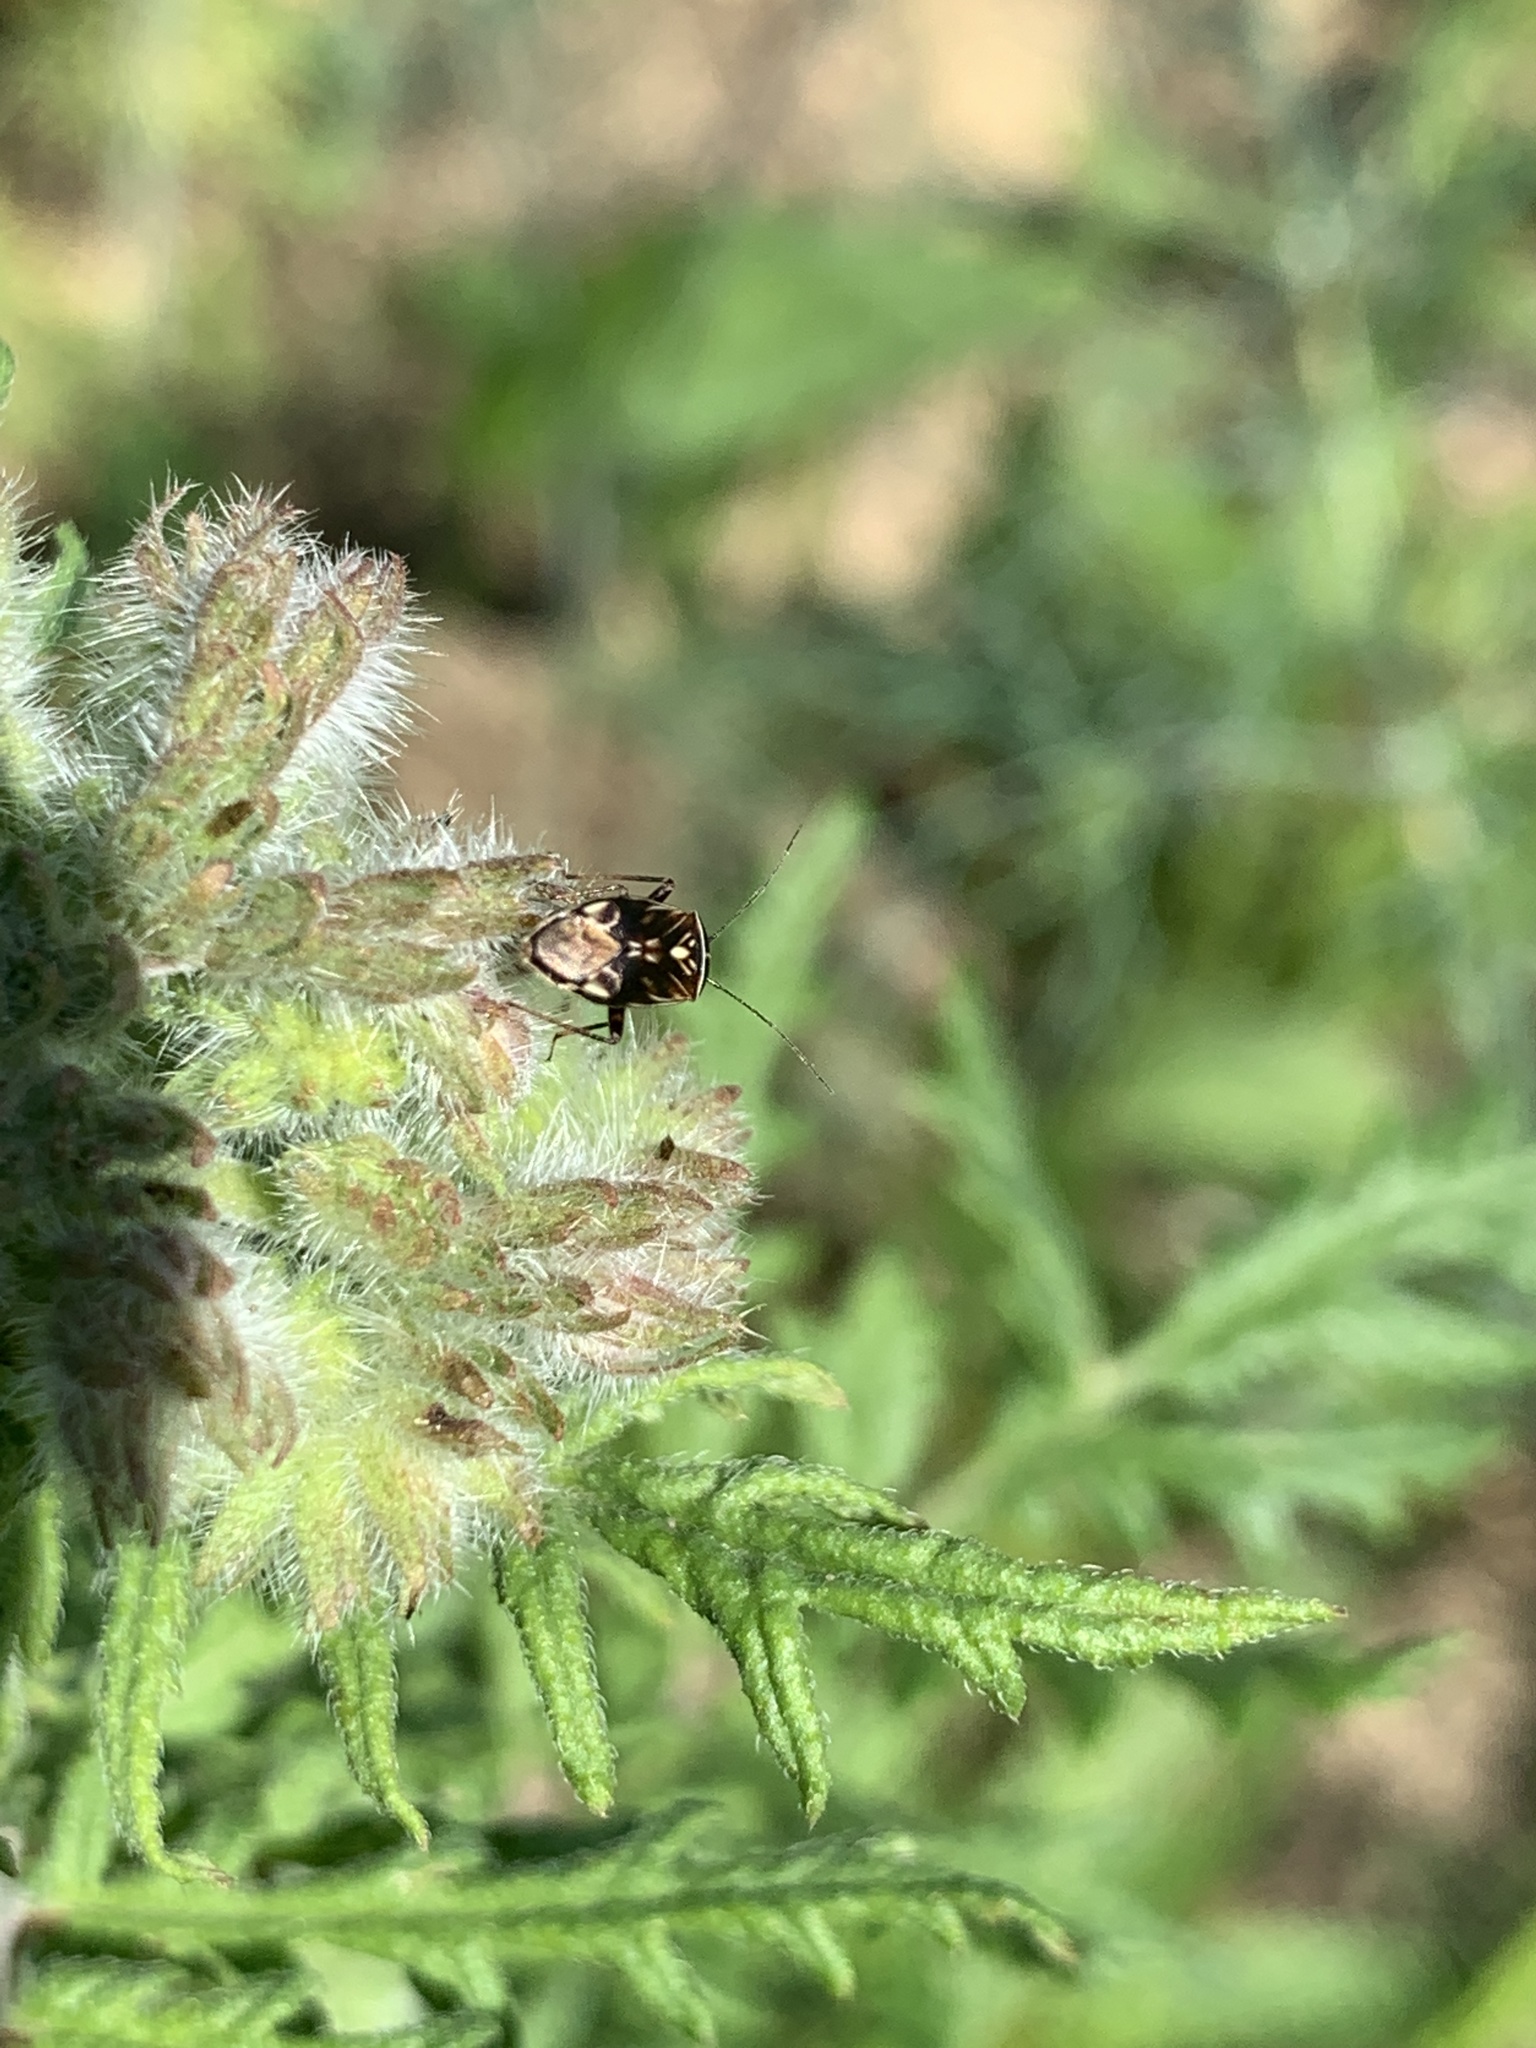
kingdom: Animalia
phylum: Arthropoda
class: Insecta
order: Hemiptera
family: Miridae
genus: Lygus
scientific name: Lygus lineolaris
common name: North american tarnished plant bug
